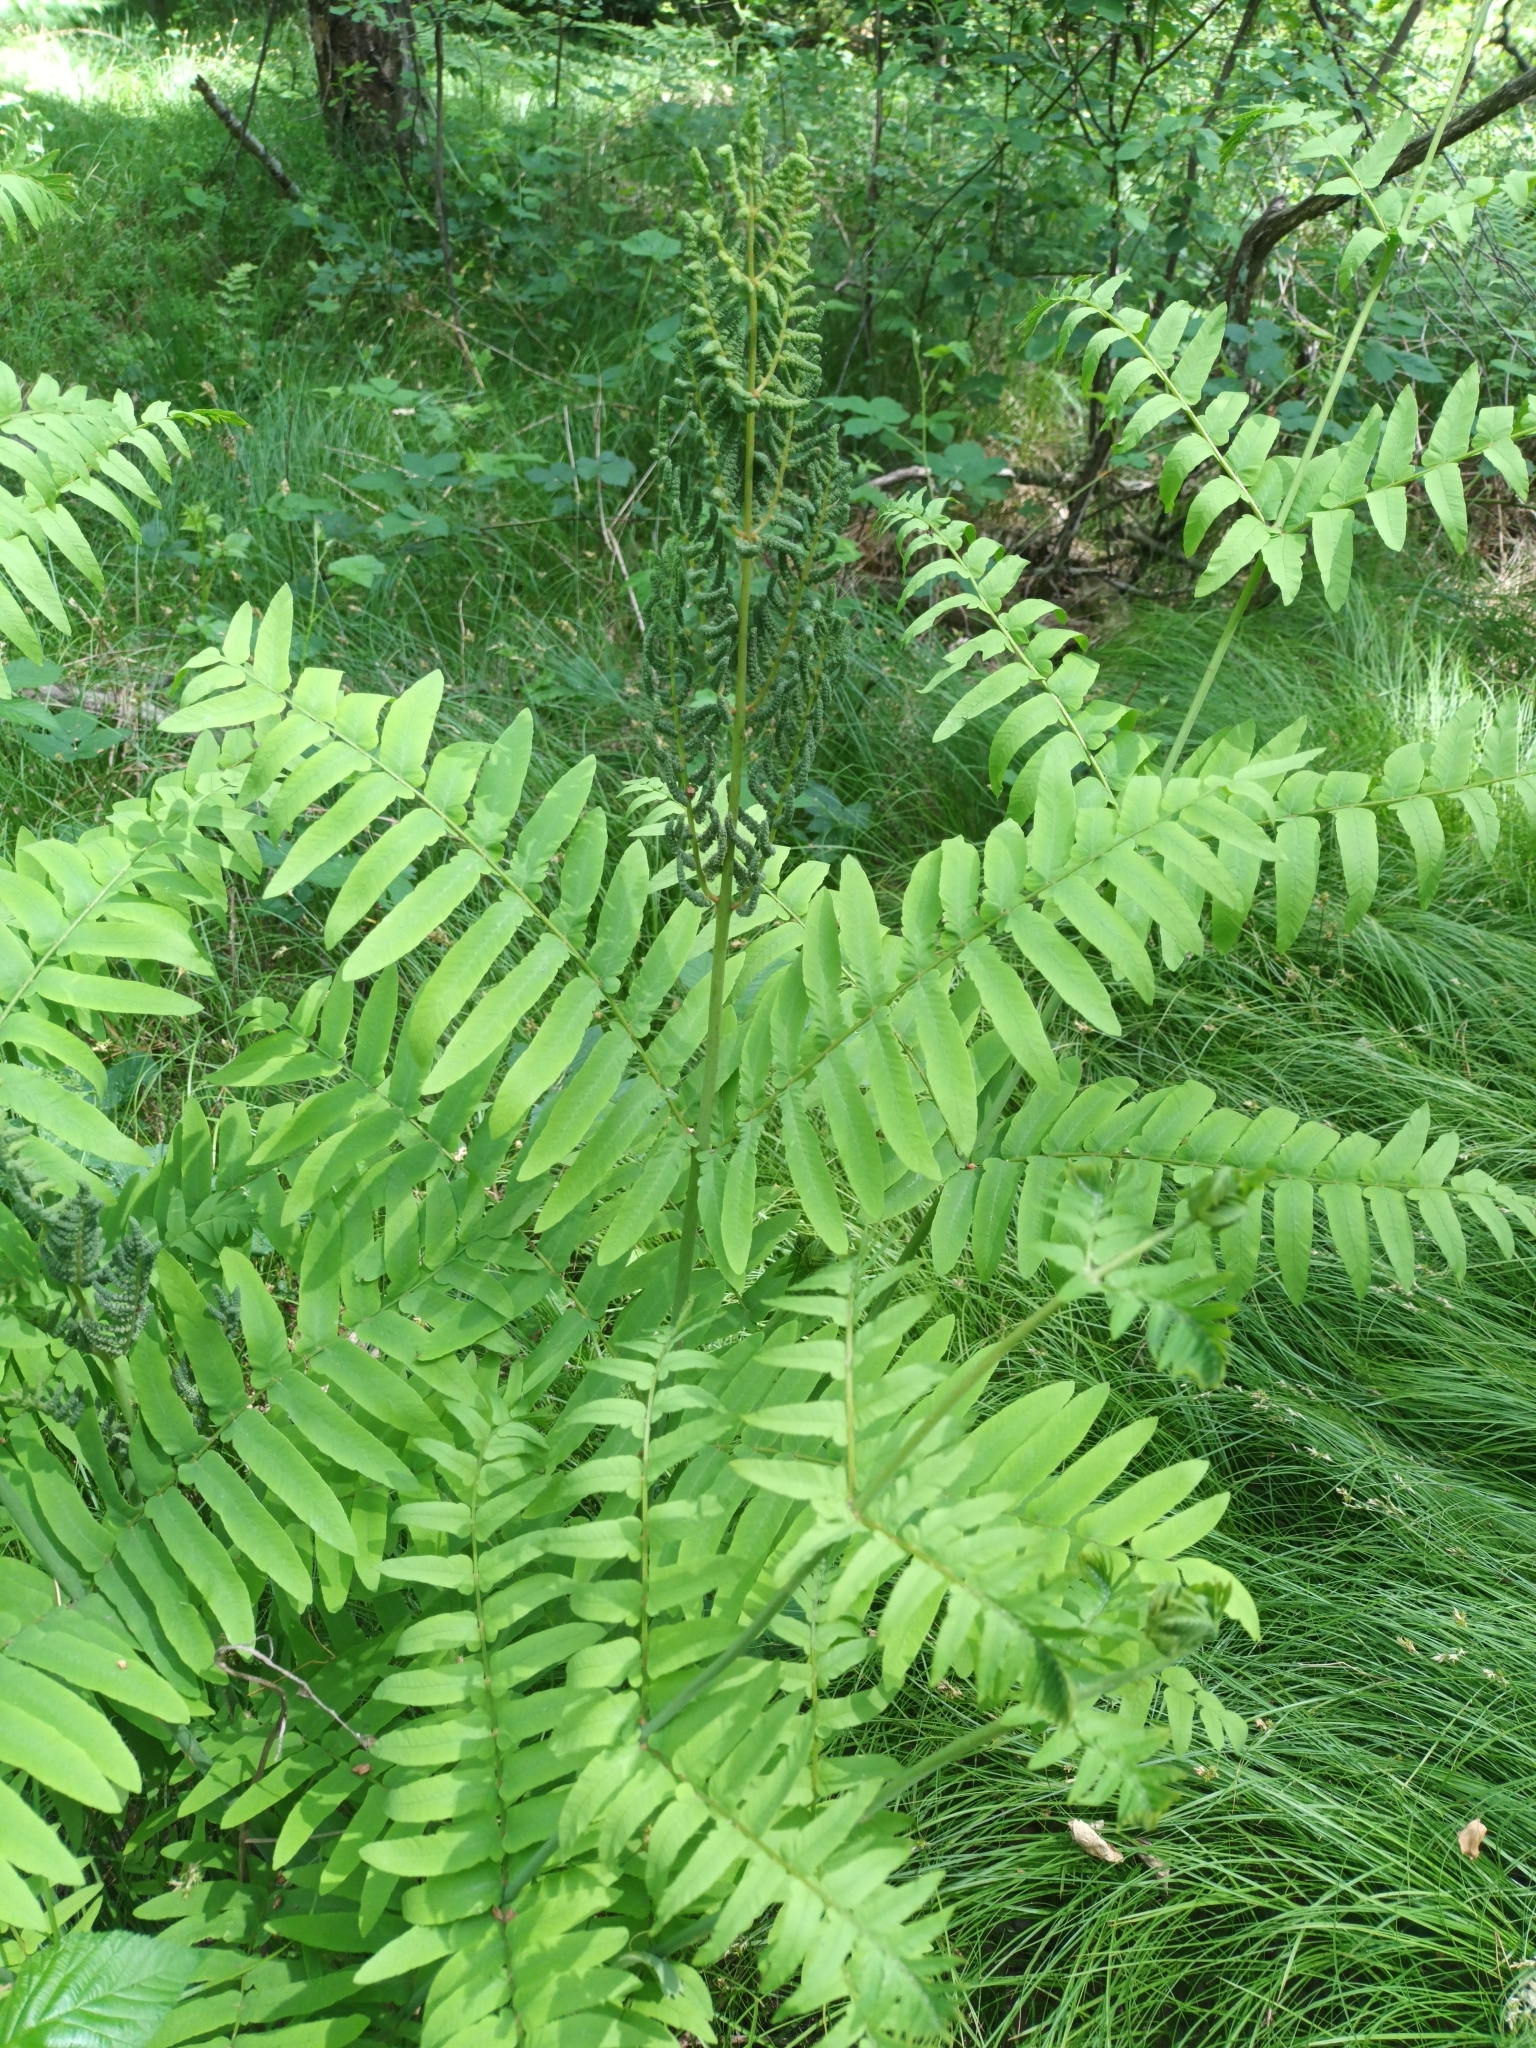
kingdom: Plantae
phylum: Tracheophyta
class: Polypodiopsida
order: Osmundales
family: Osmundaceae
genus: Osmunda
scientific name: Osmunda regalis
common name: Royal fern
